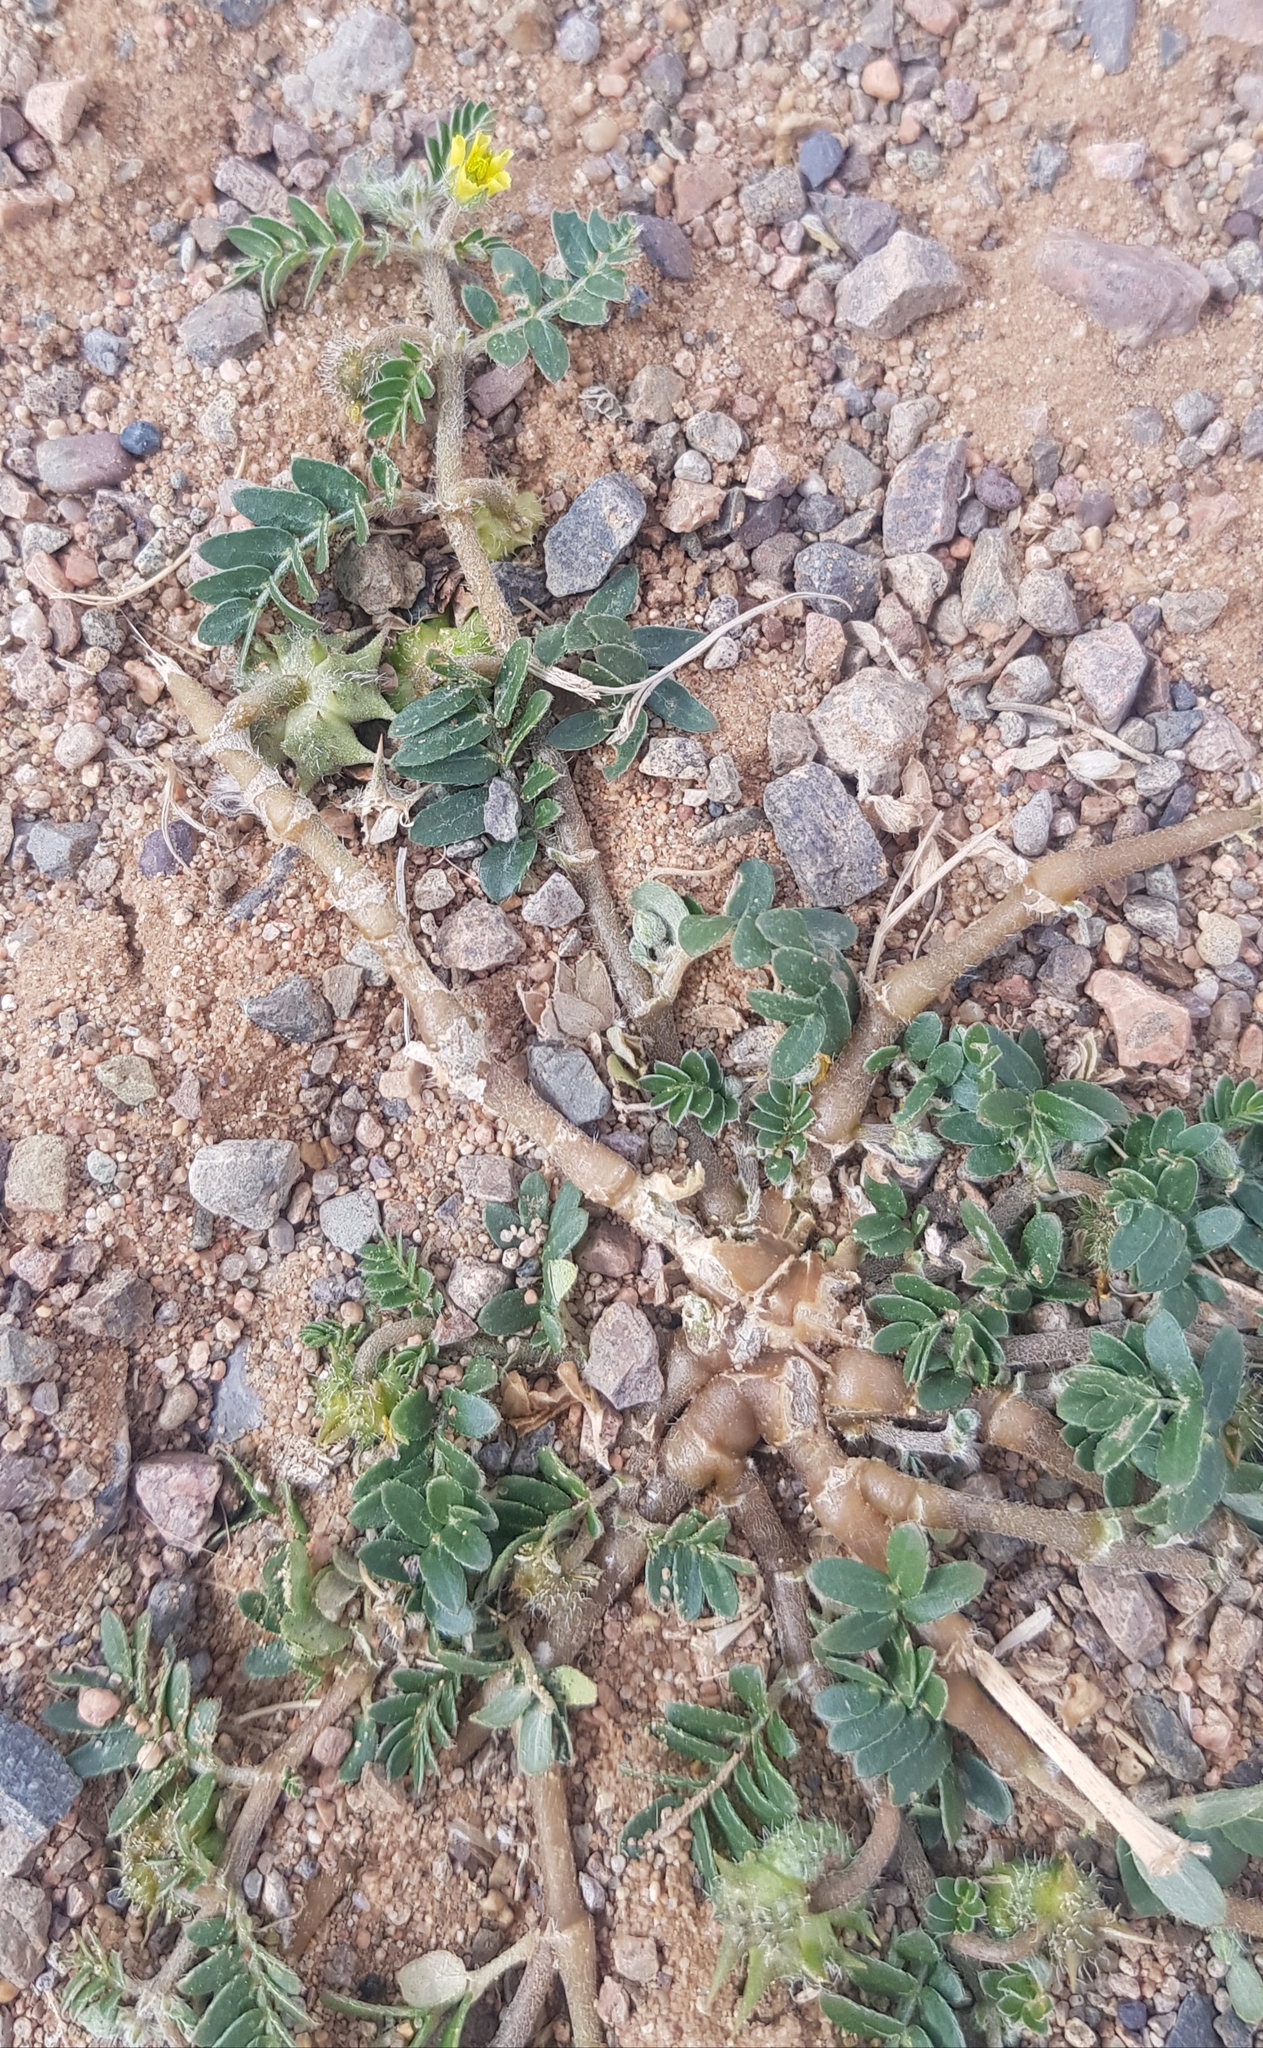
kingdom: Plantae
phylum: Tracheophyta
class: Magnoliopsida
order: Zygophyllales
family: Zygophyllaceae
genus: Tribulus
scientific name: Tribulus terrestris
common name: Puncturevine
